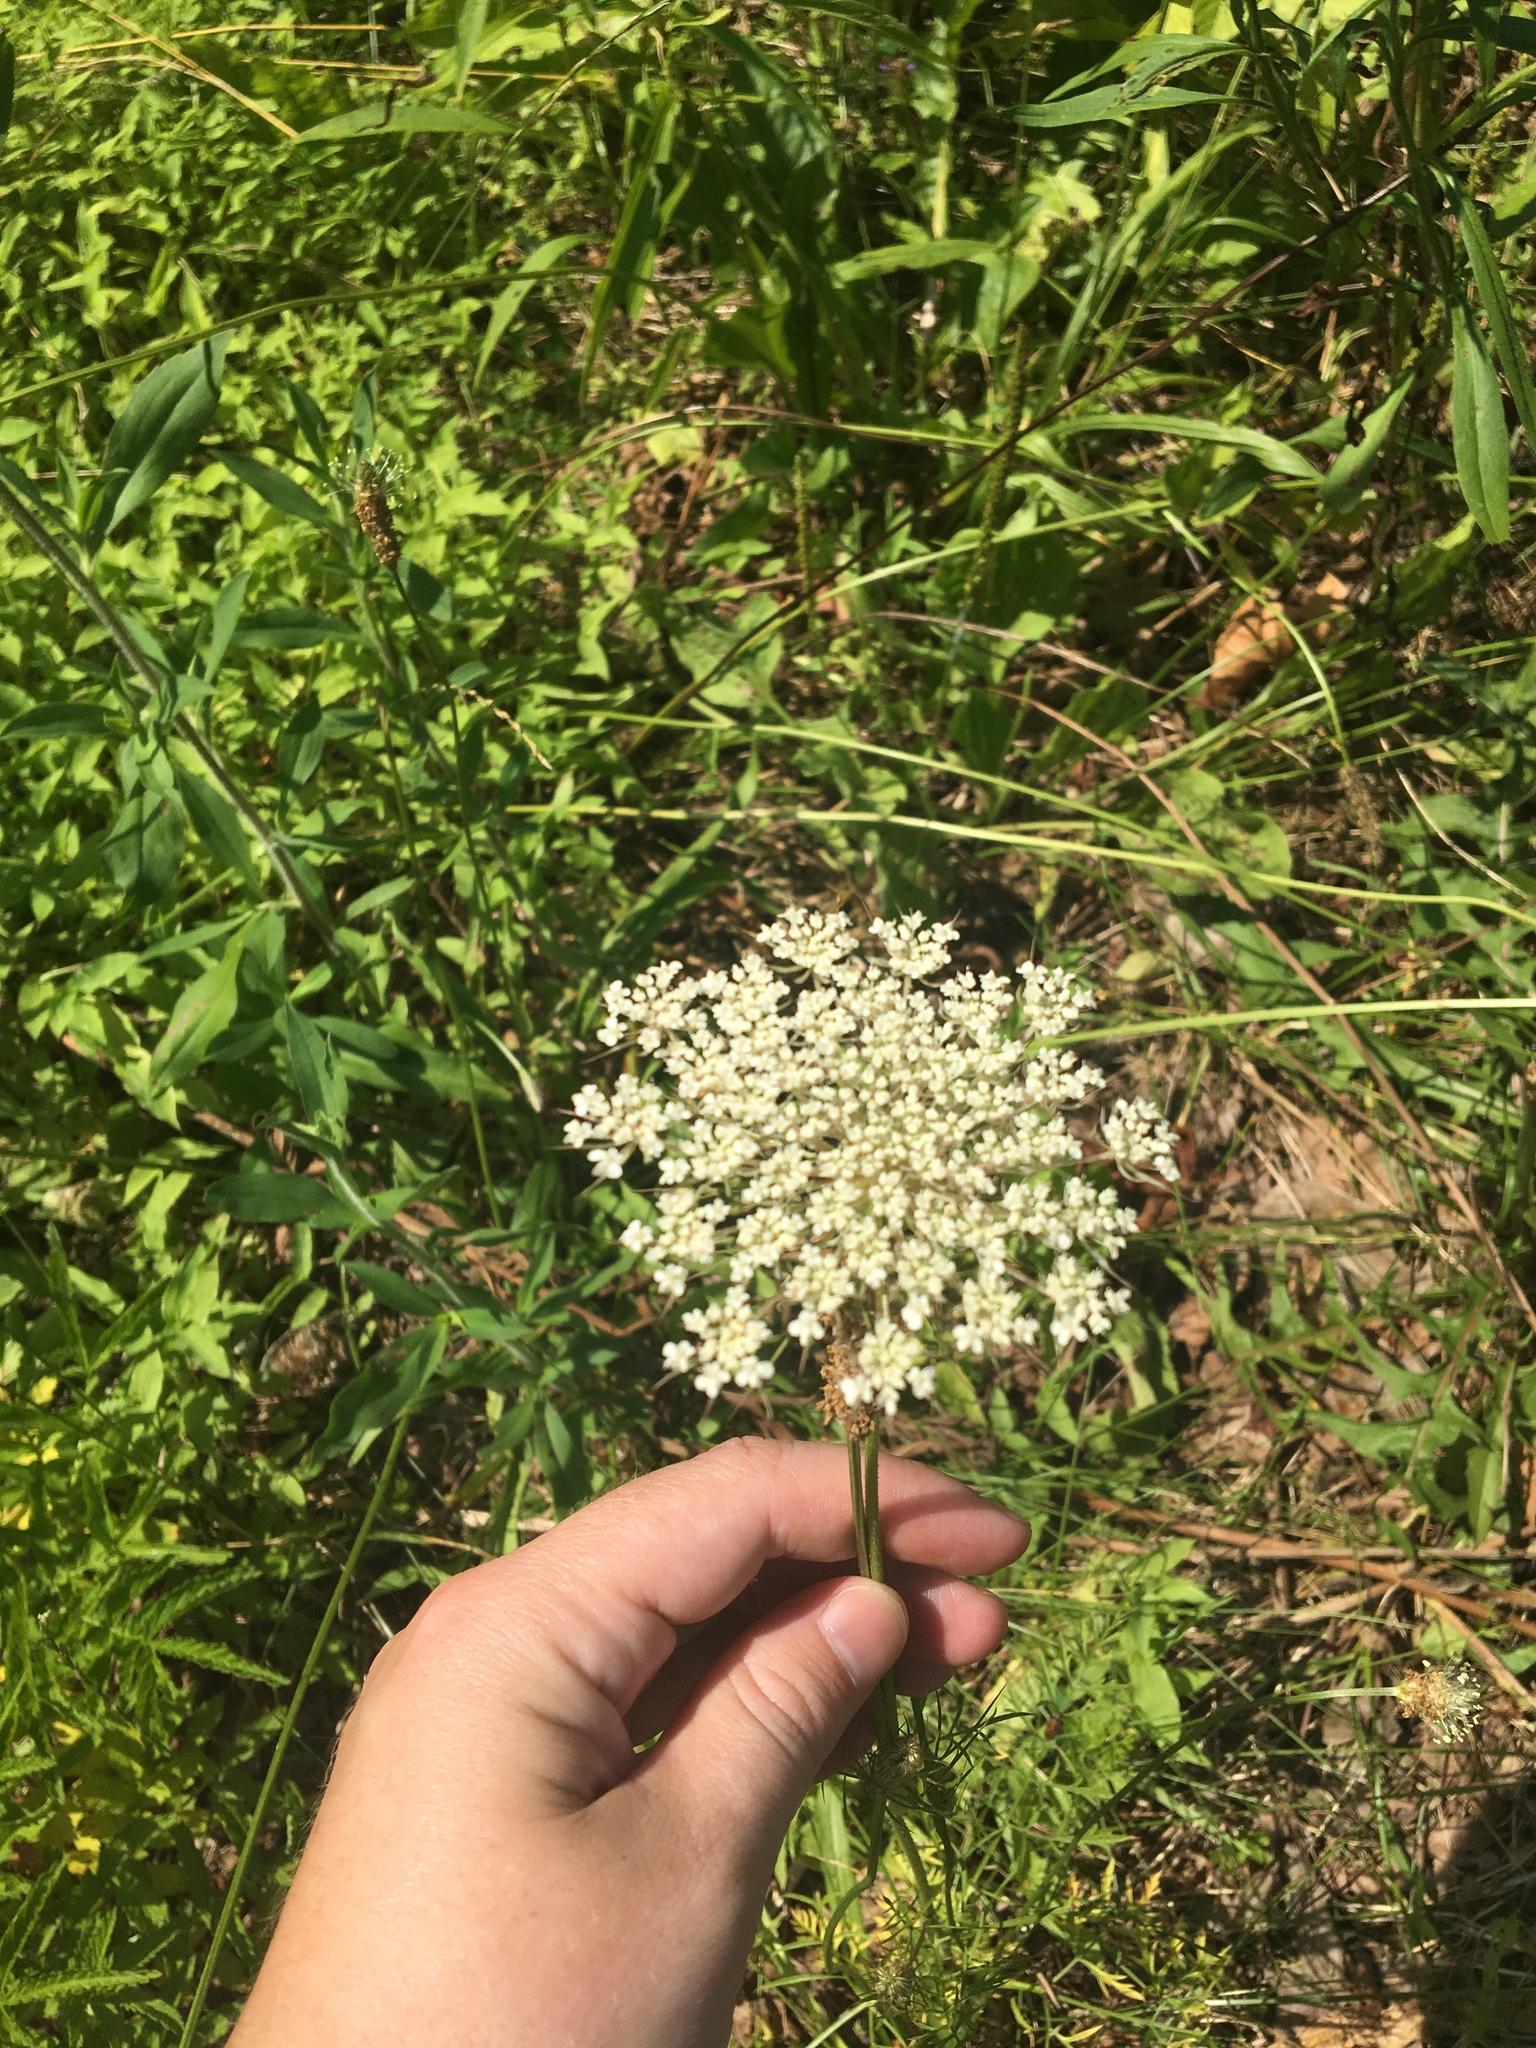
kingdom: Plantae
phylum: Tracheophyta
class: Magnoliopsida
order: Apiales
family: Apiaceae
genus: Daucus
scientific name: Daucus carota
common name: Wild carrot
